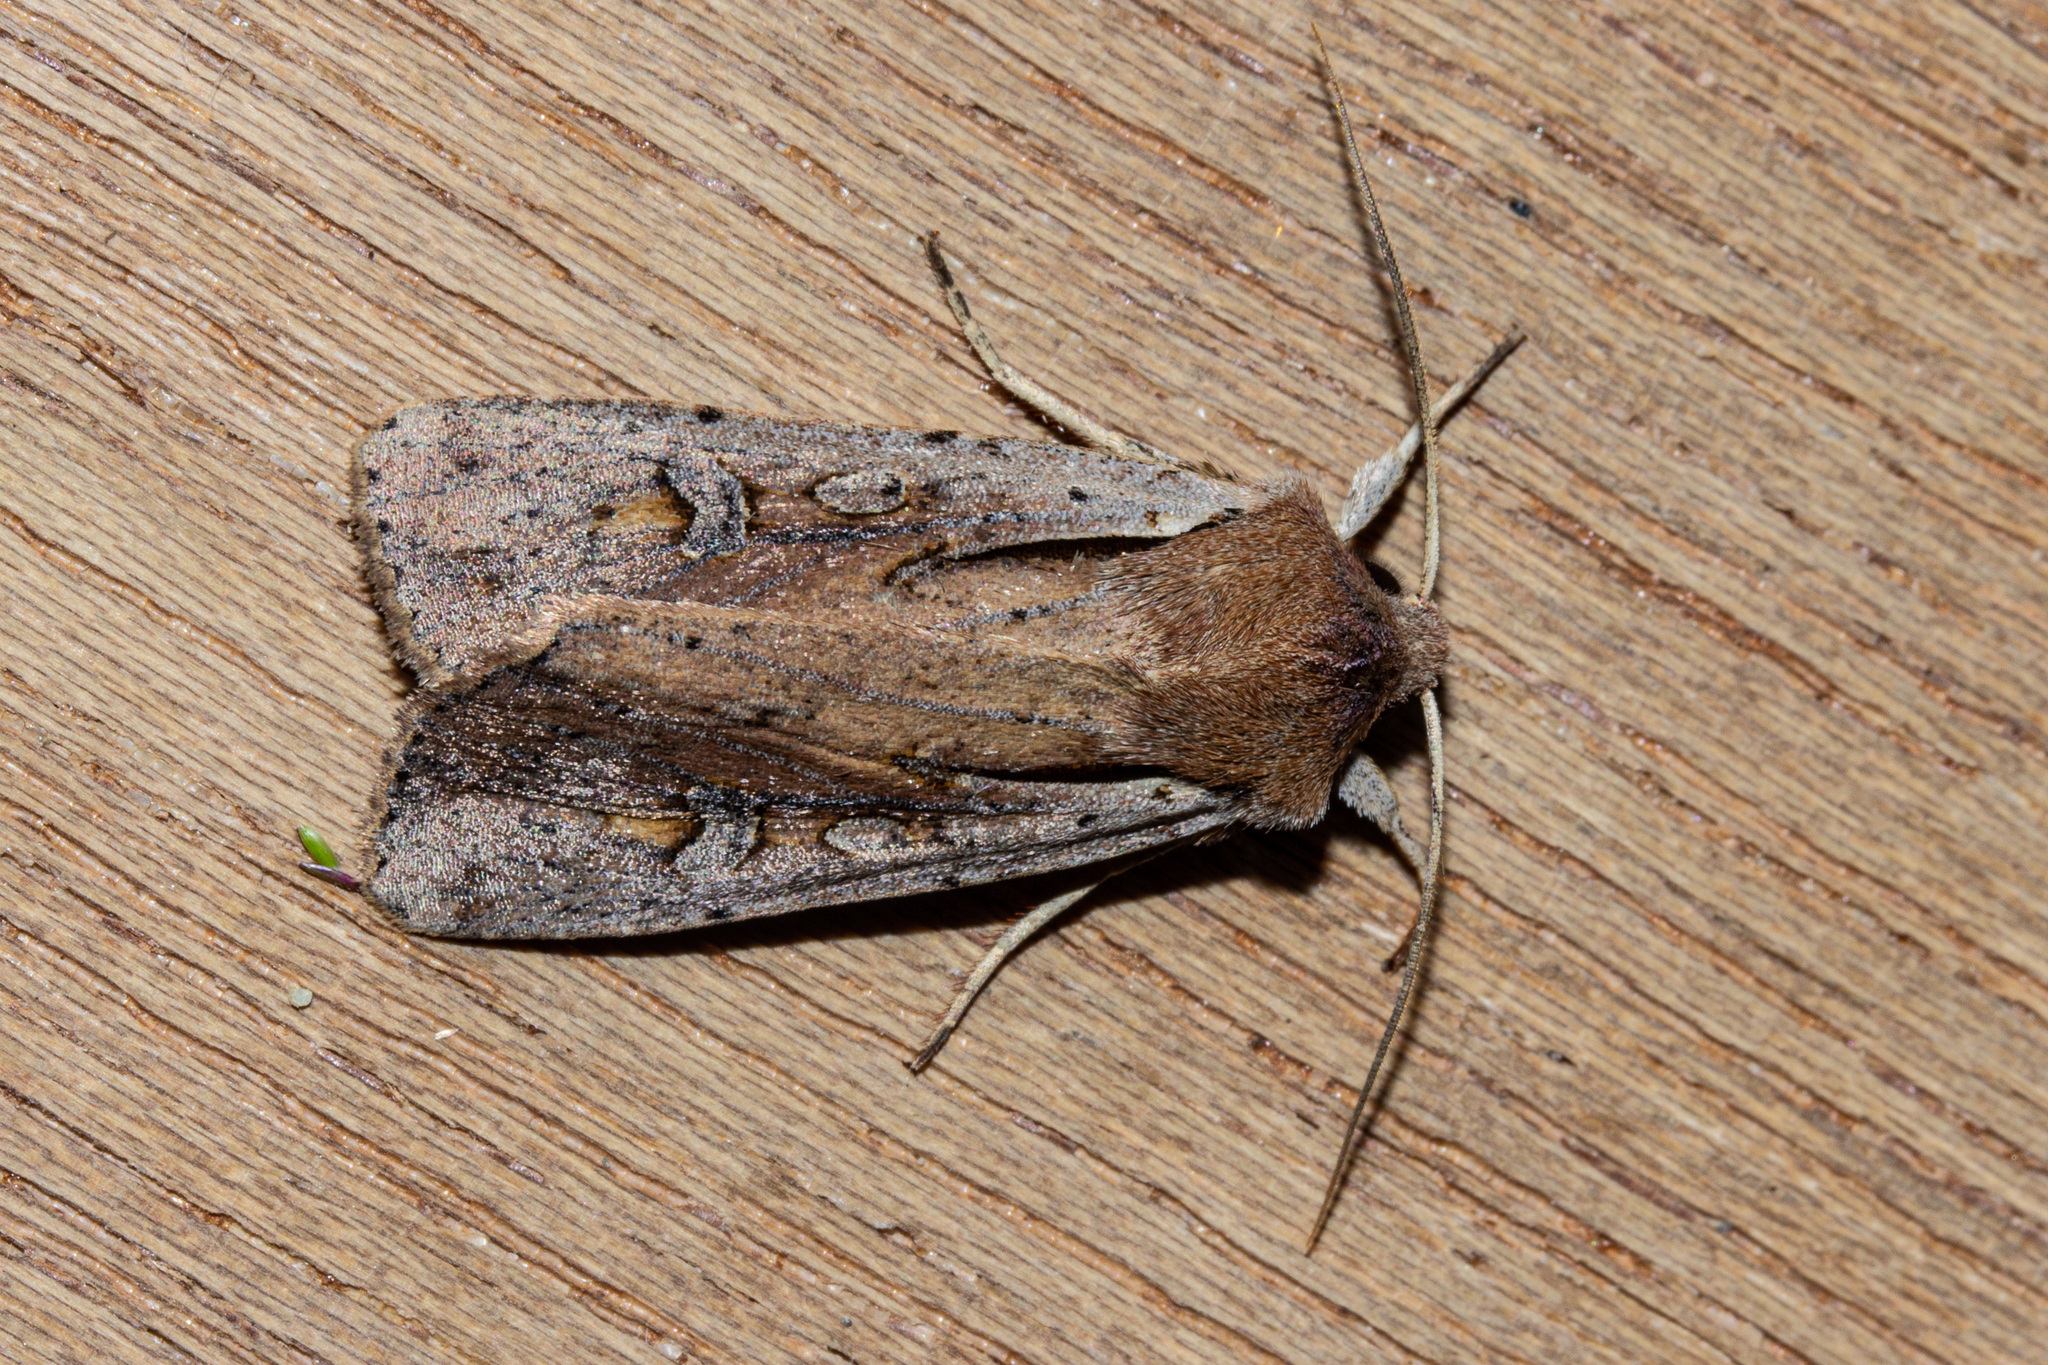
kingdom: Animalia
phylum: Arthropoda
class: Insecta
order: Lepidoptera
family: Noctuidae
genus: Ichneutica
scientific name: Ichneutica atristriga
